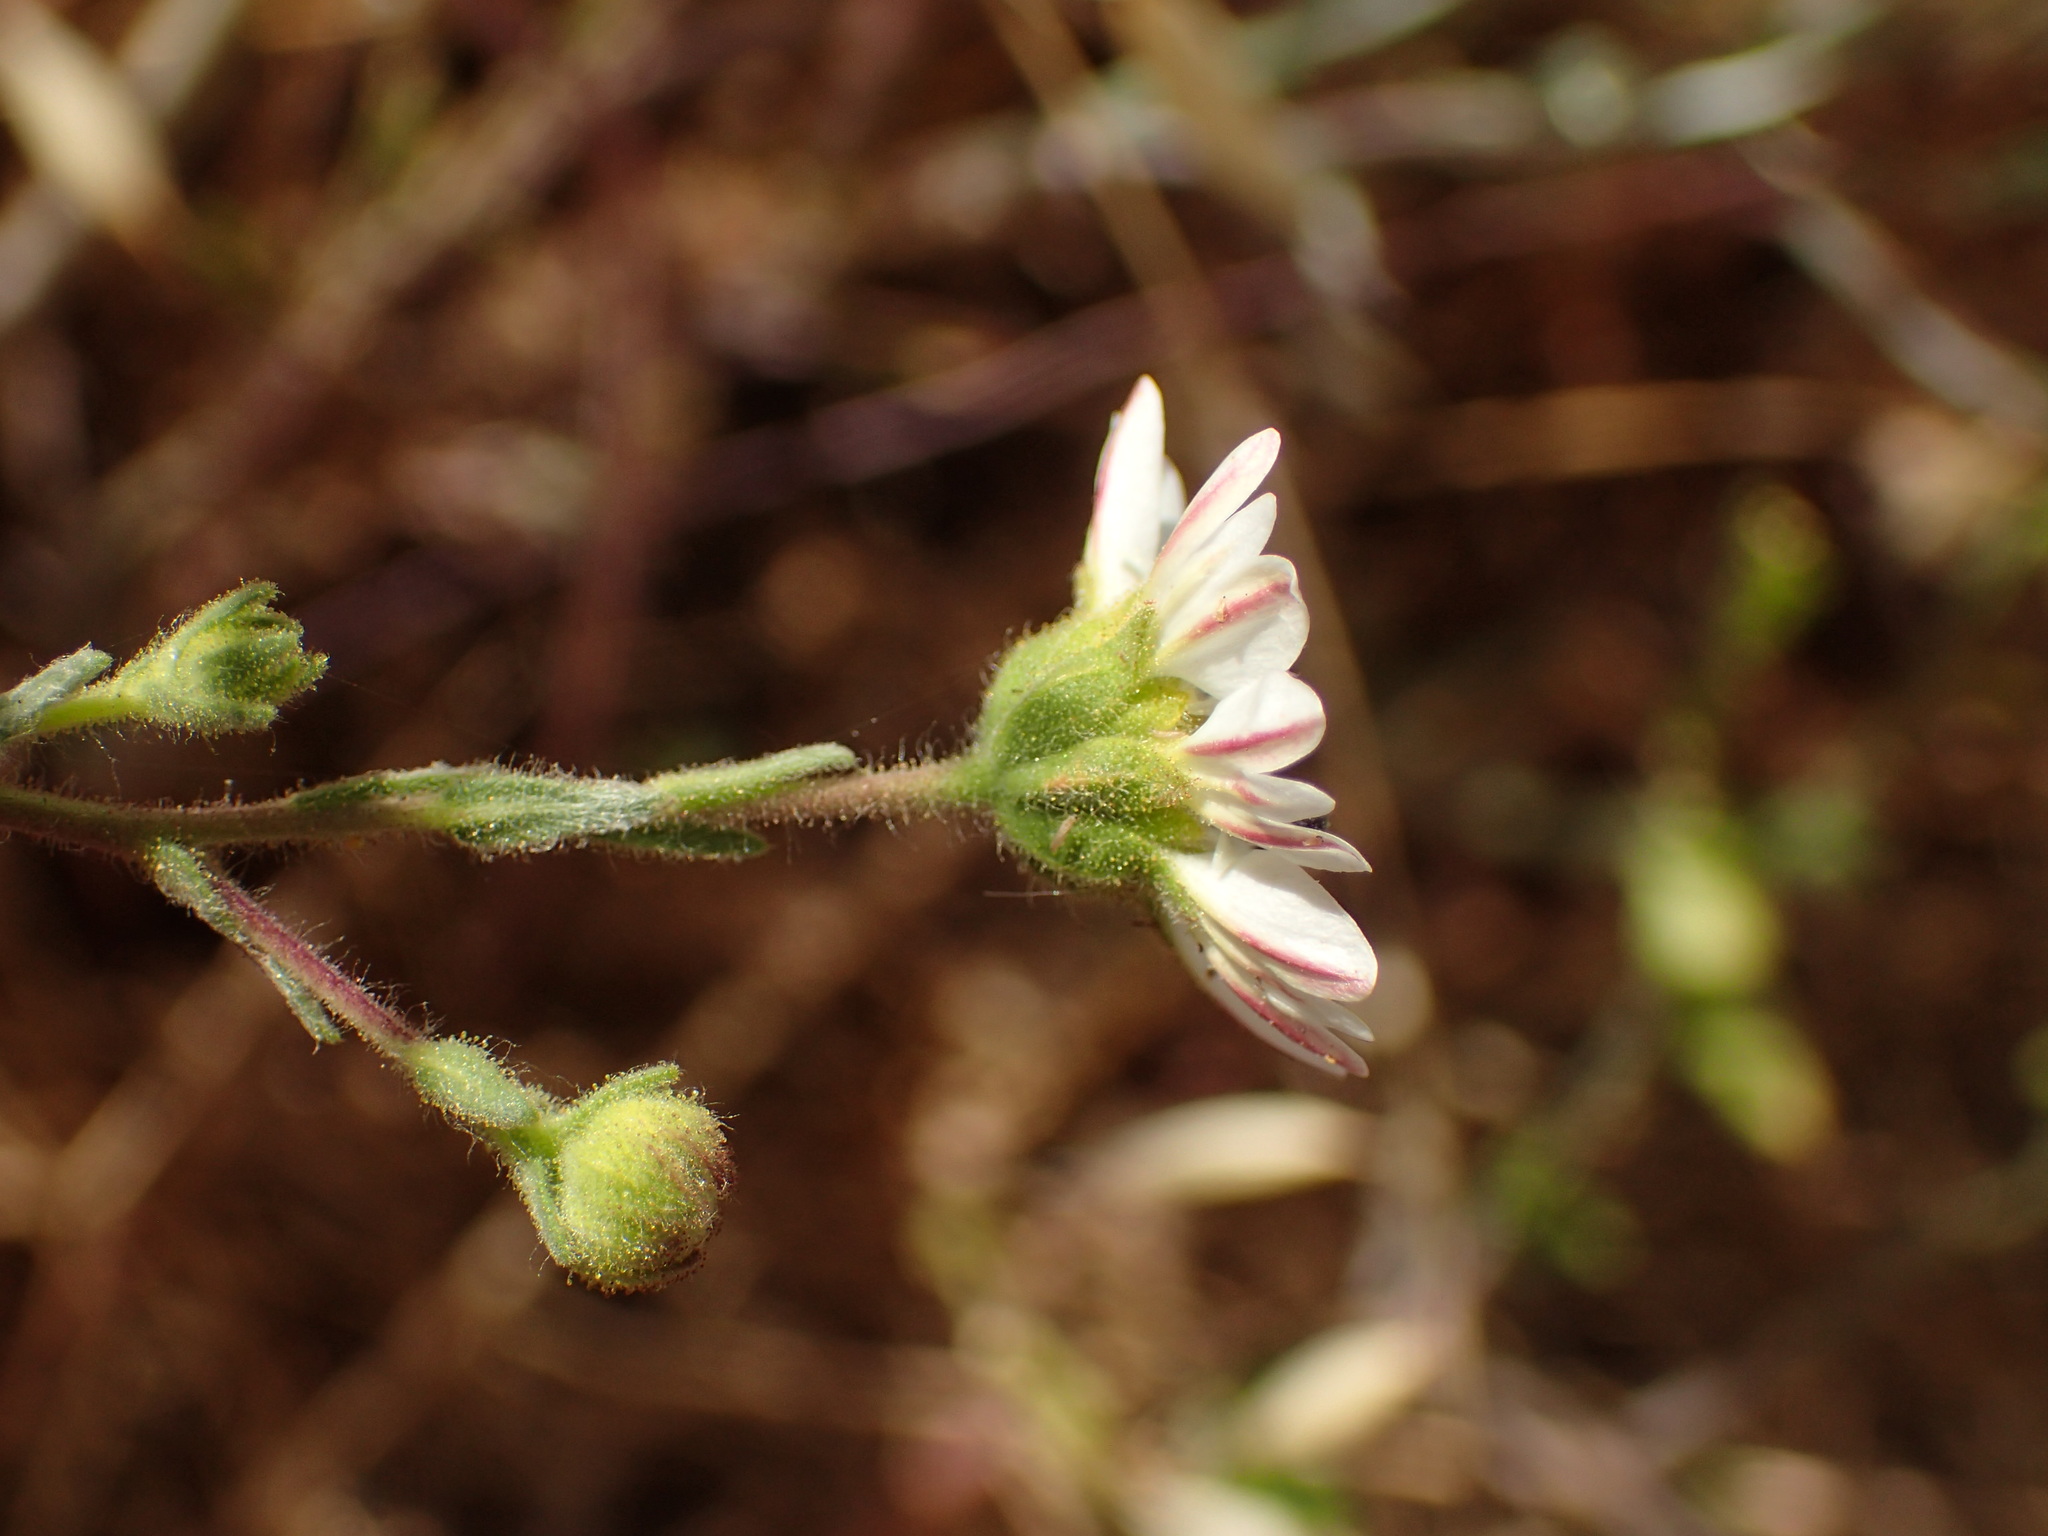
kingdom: Plantae
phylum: Tracheophyta
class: Magnoliopsida
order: Asterales
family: Asteraceae
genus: Hemizonia
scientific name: Hemizonia congesta
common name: Hayfield tarweed
